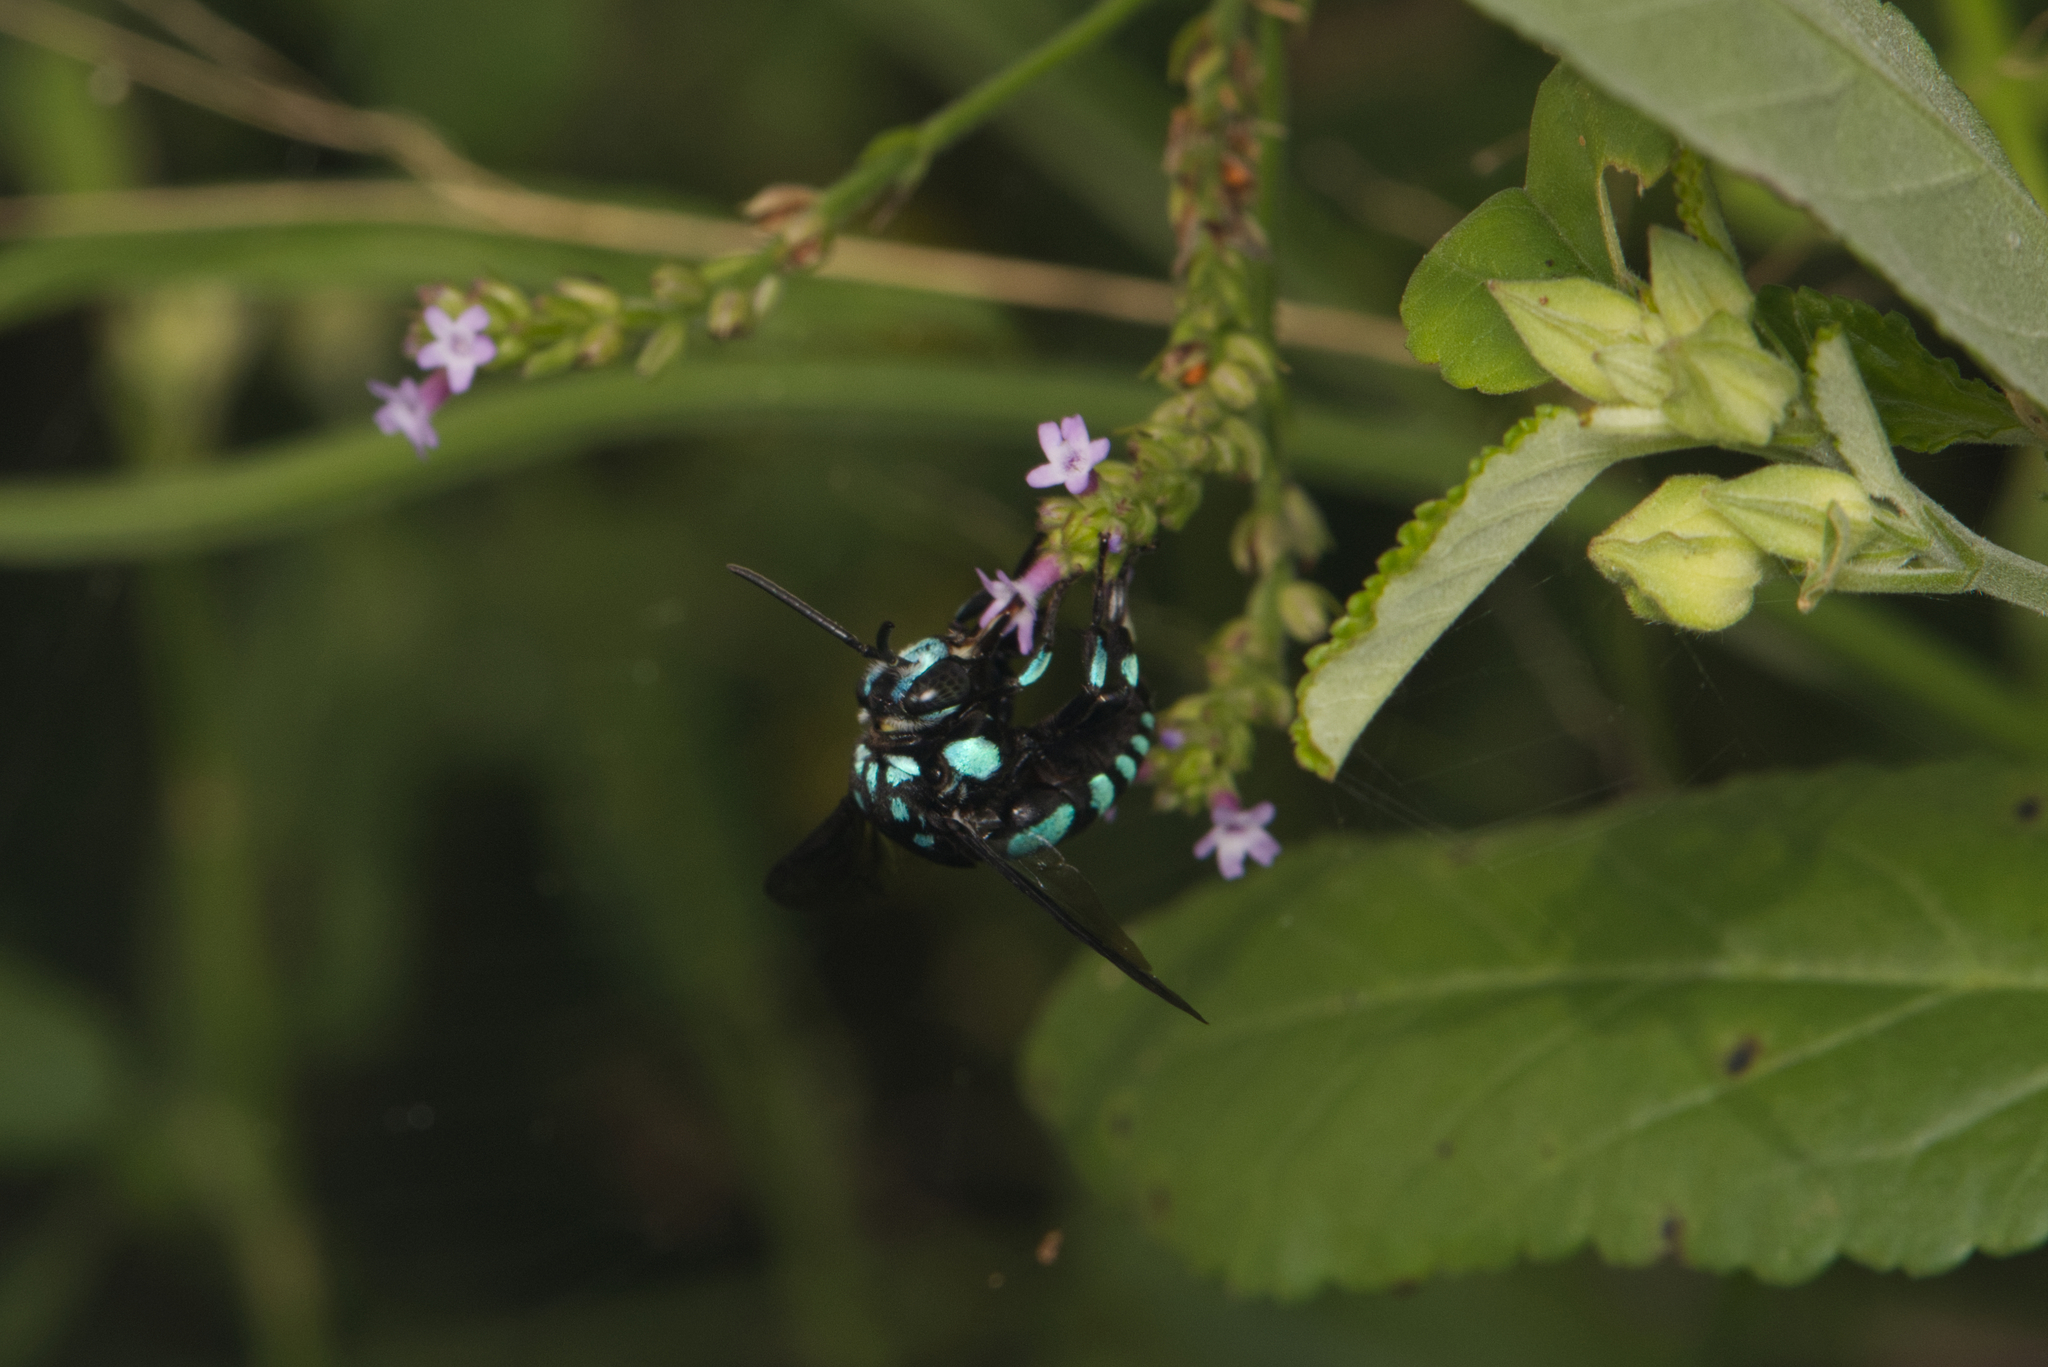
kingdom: Animalia
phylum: Arthropoda
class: Insecta
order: Hymenoptera
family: Apidae
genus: Thyreus
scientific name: Thyreus nitidulus
